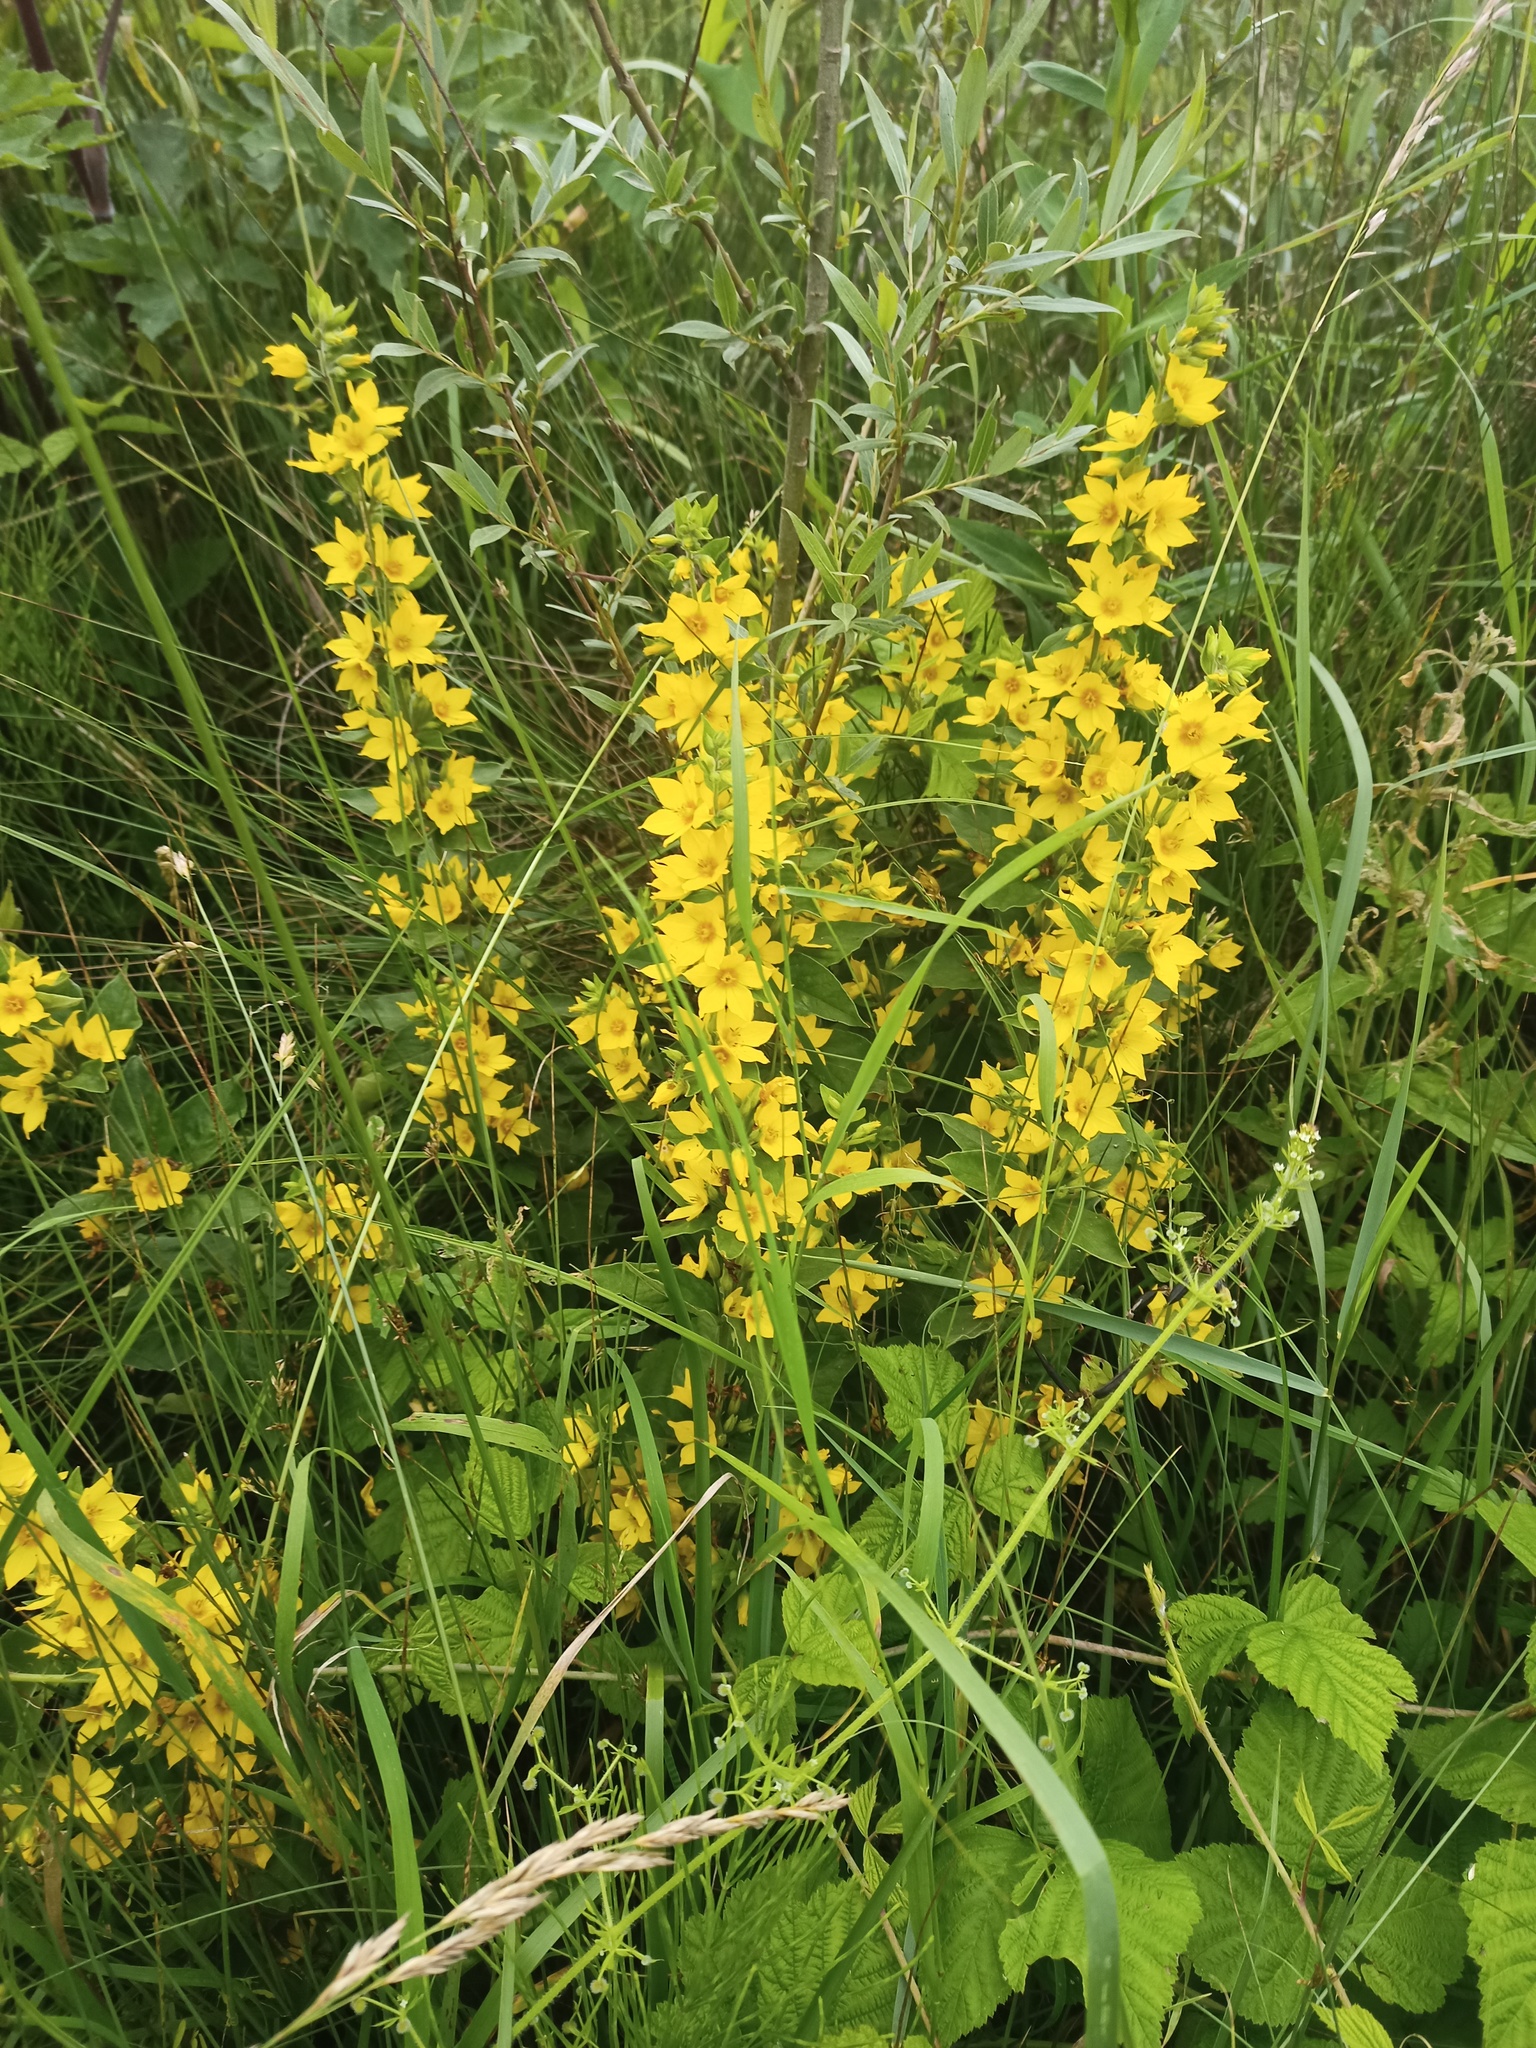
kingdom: Plantae
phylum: Tracheophyta
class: Magnoliopsida
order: Ericales
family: Primulaceae
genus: Lysimachia
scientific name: Lysimachia punctata
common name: Dotted loosestrife
